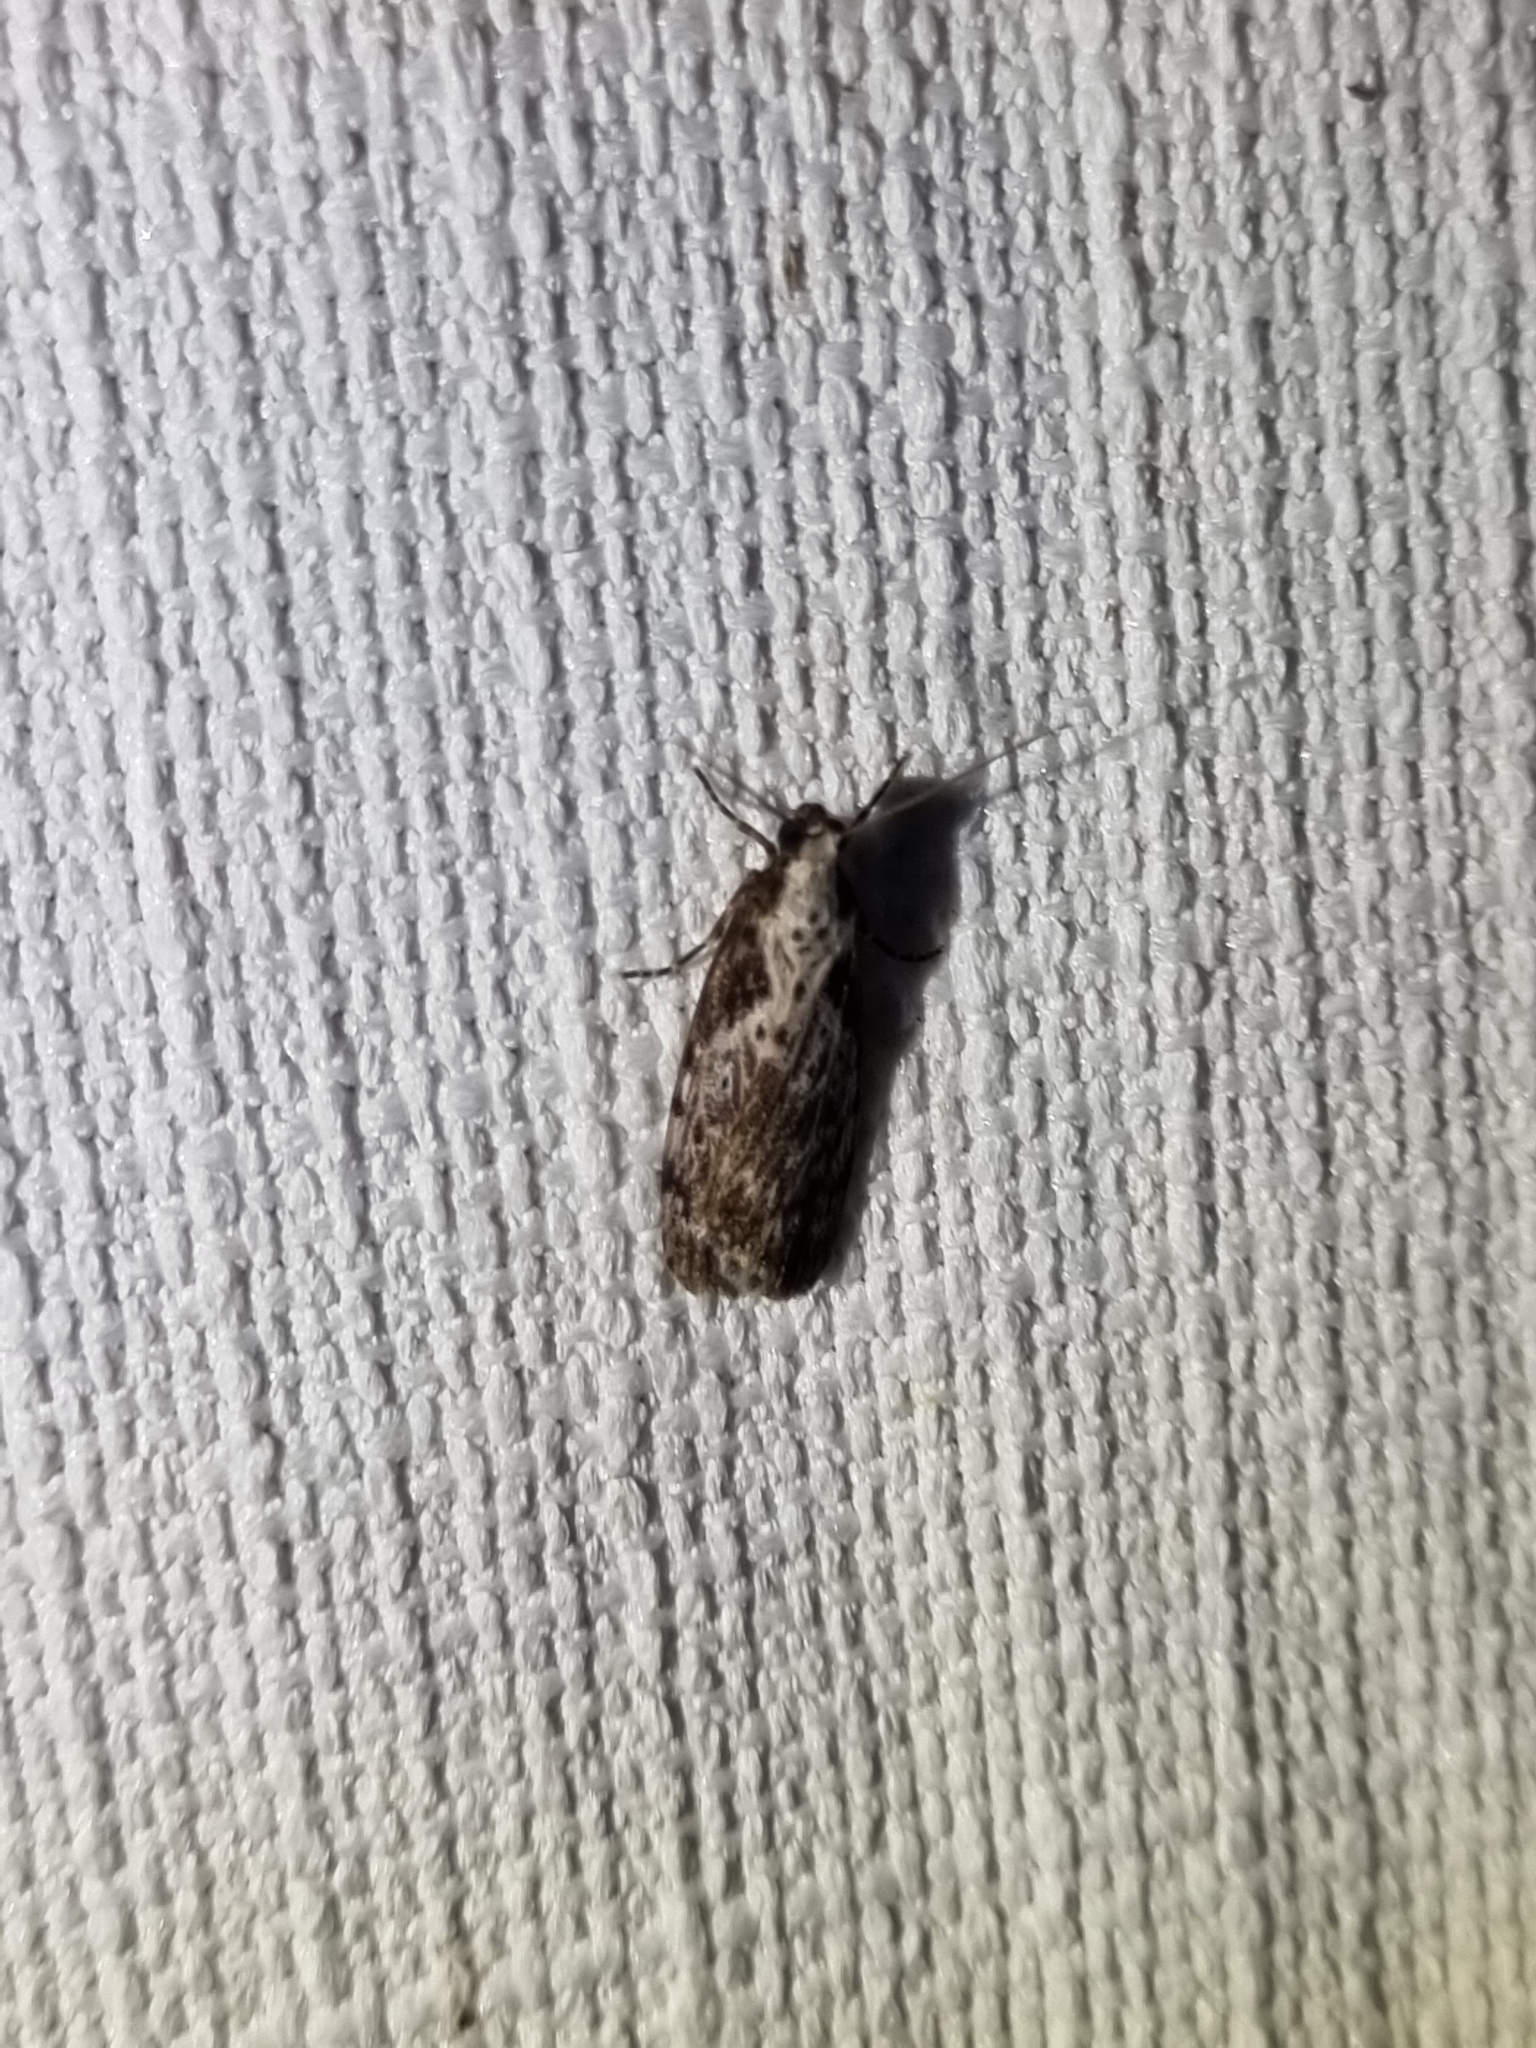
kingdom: Animalia
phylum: Arthropoda
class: Insecta
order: Lepidoptera
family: Erebidae
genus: Digama
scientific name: Digama Sommeria marmorea
